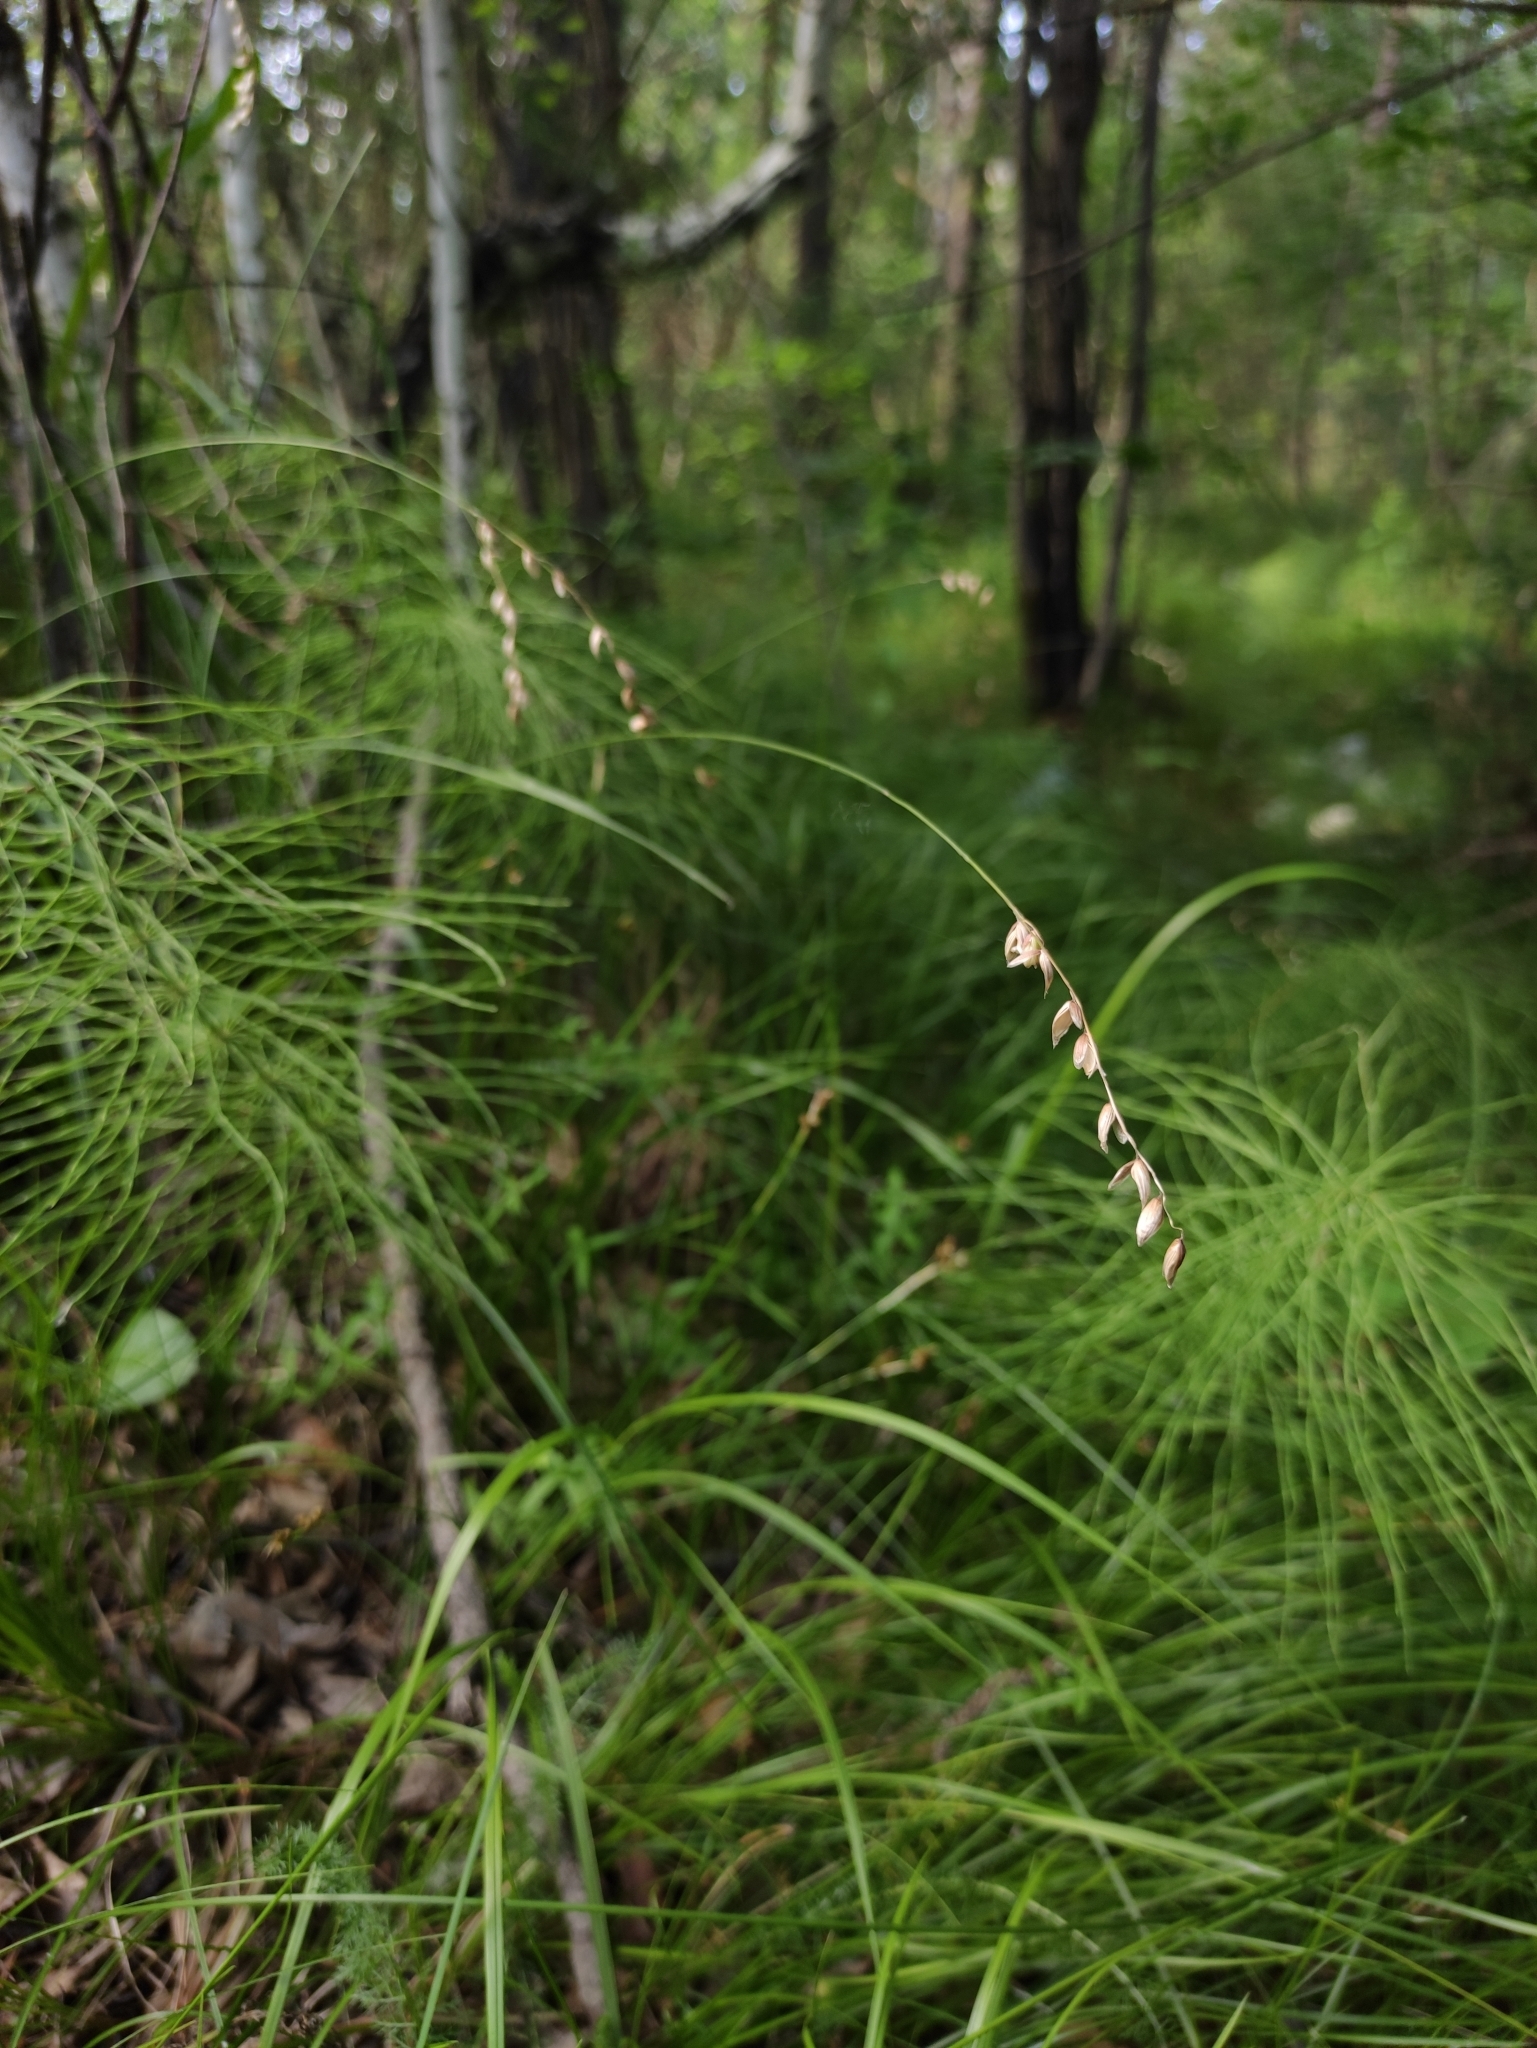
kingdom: Plantae
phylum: Tracheophyta
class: Liliopsida
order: Poales
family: Poaceae
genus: Melica
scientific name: Melica nutans
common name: Mountain melick
